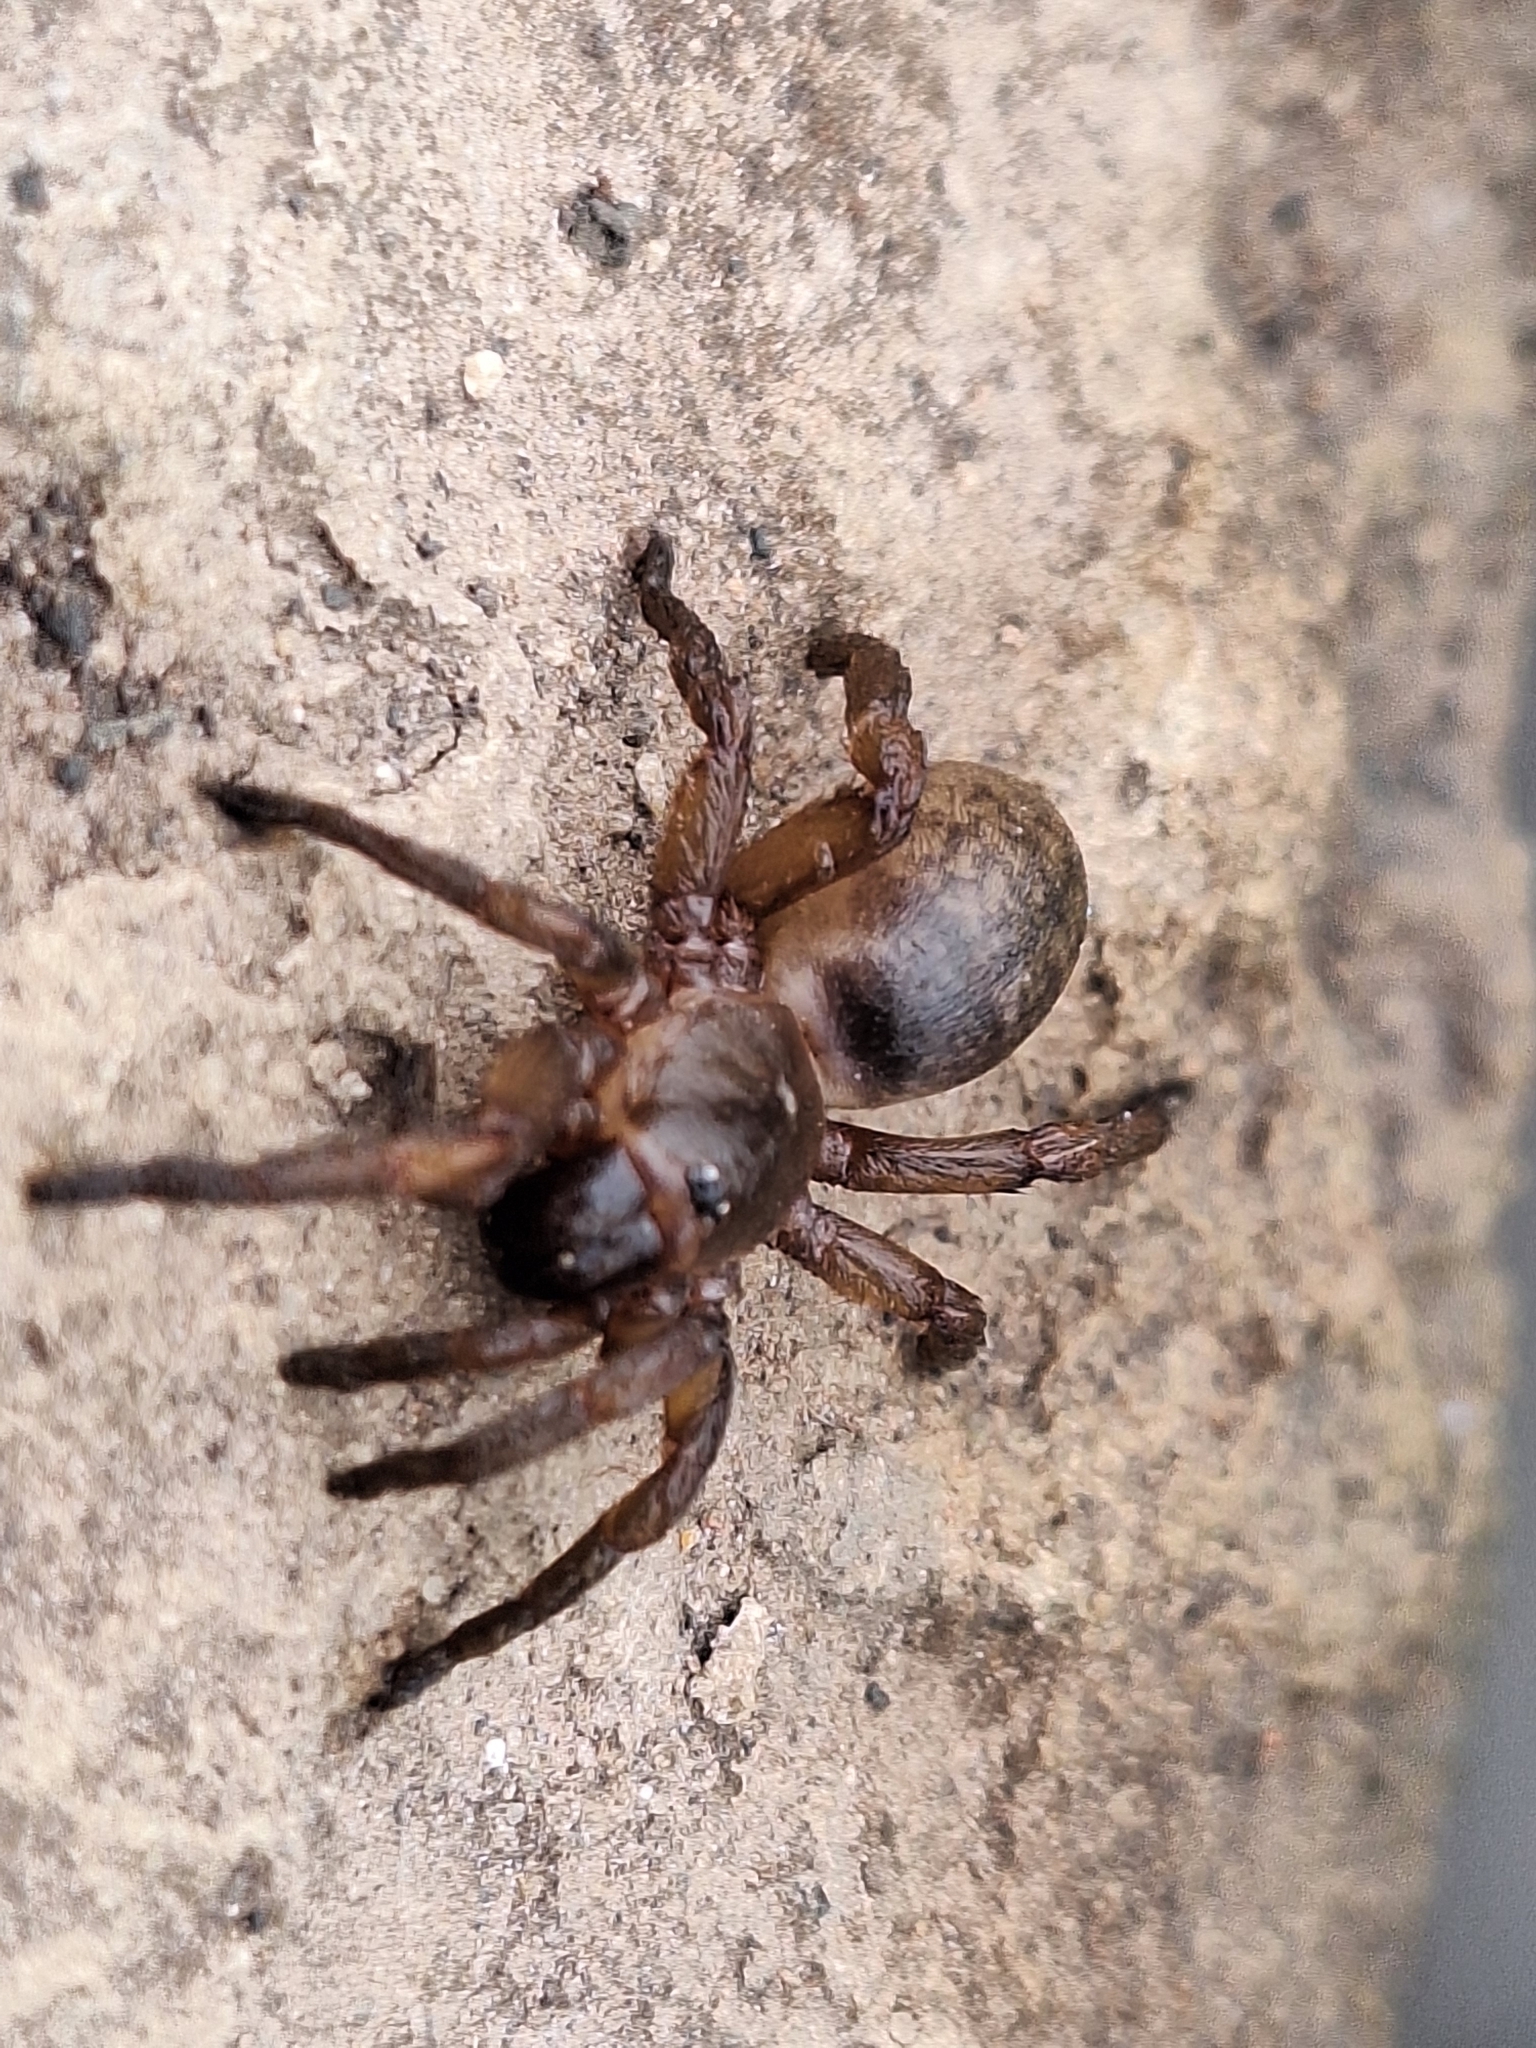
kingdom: Animalia
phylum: Arthropoda
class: Arachnida
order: Araneae
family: Pycnothelidae
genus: Stenoterommata
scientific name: Stenoterommata platensis
